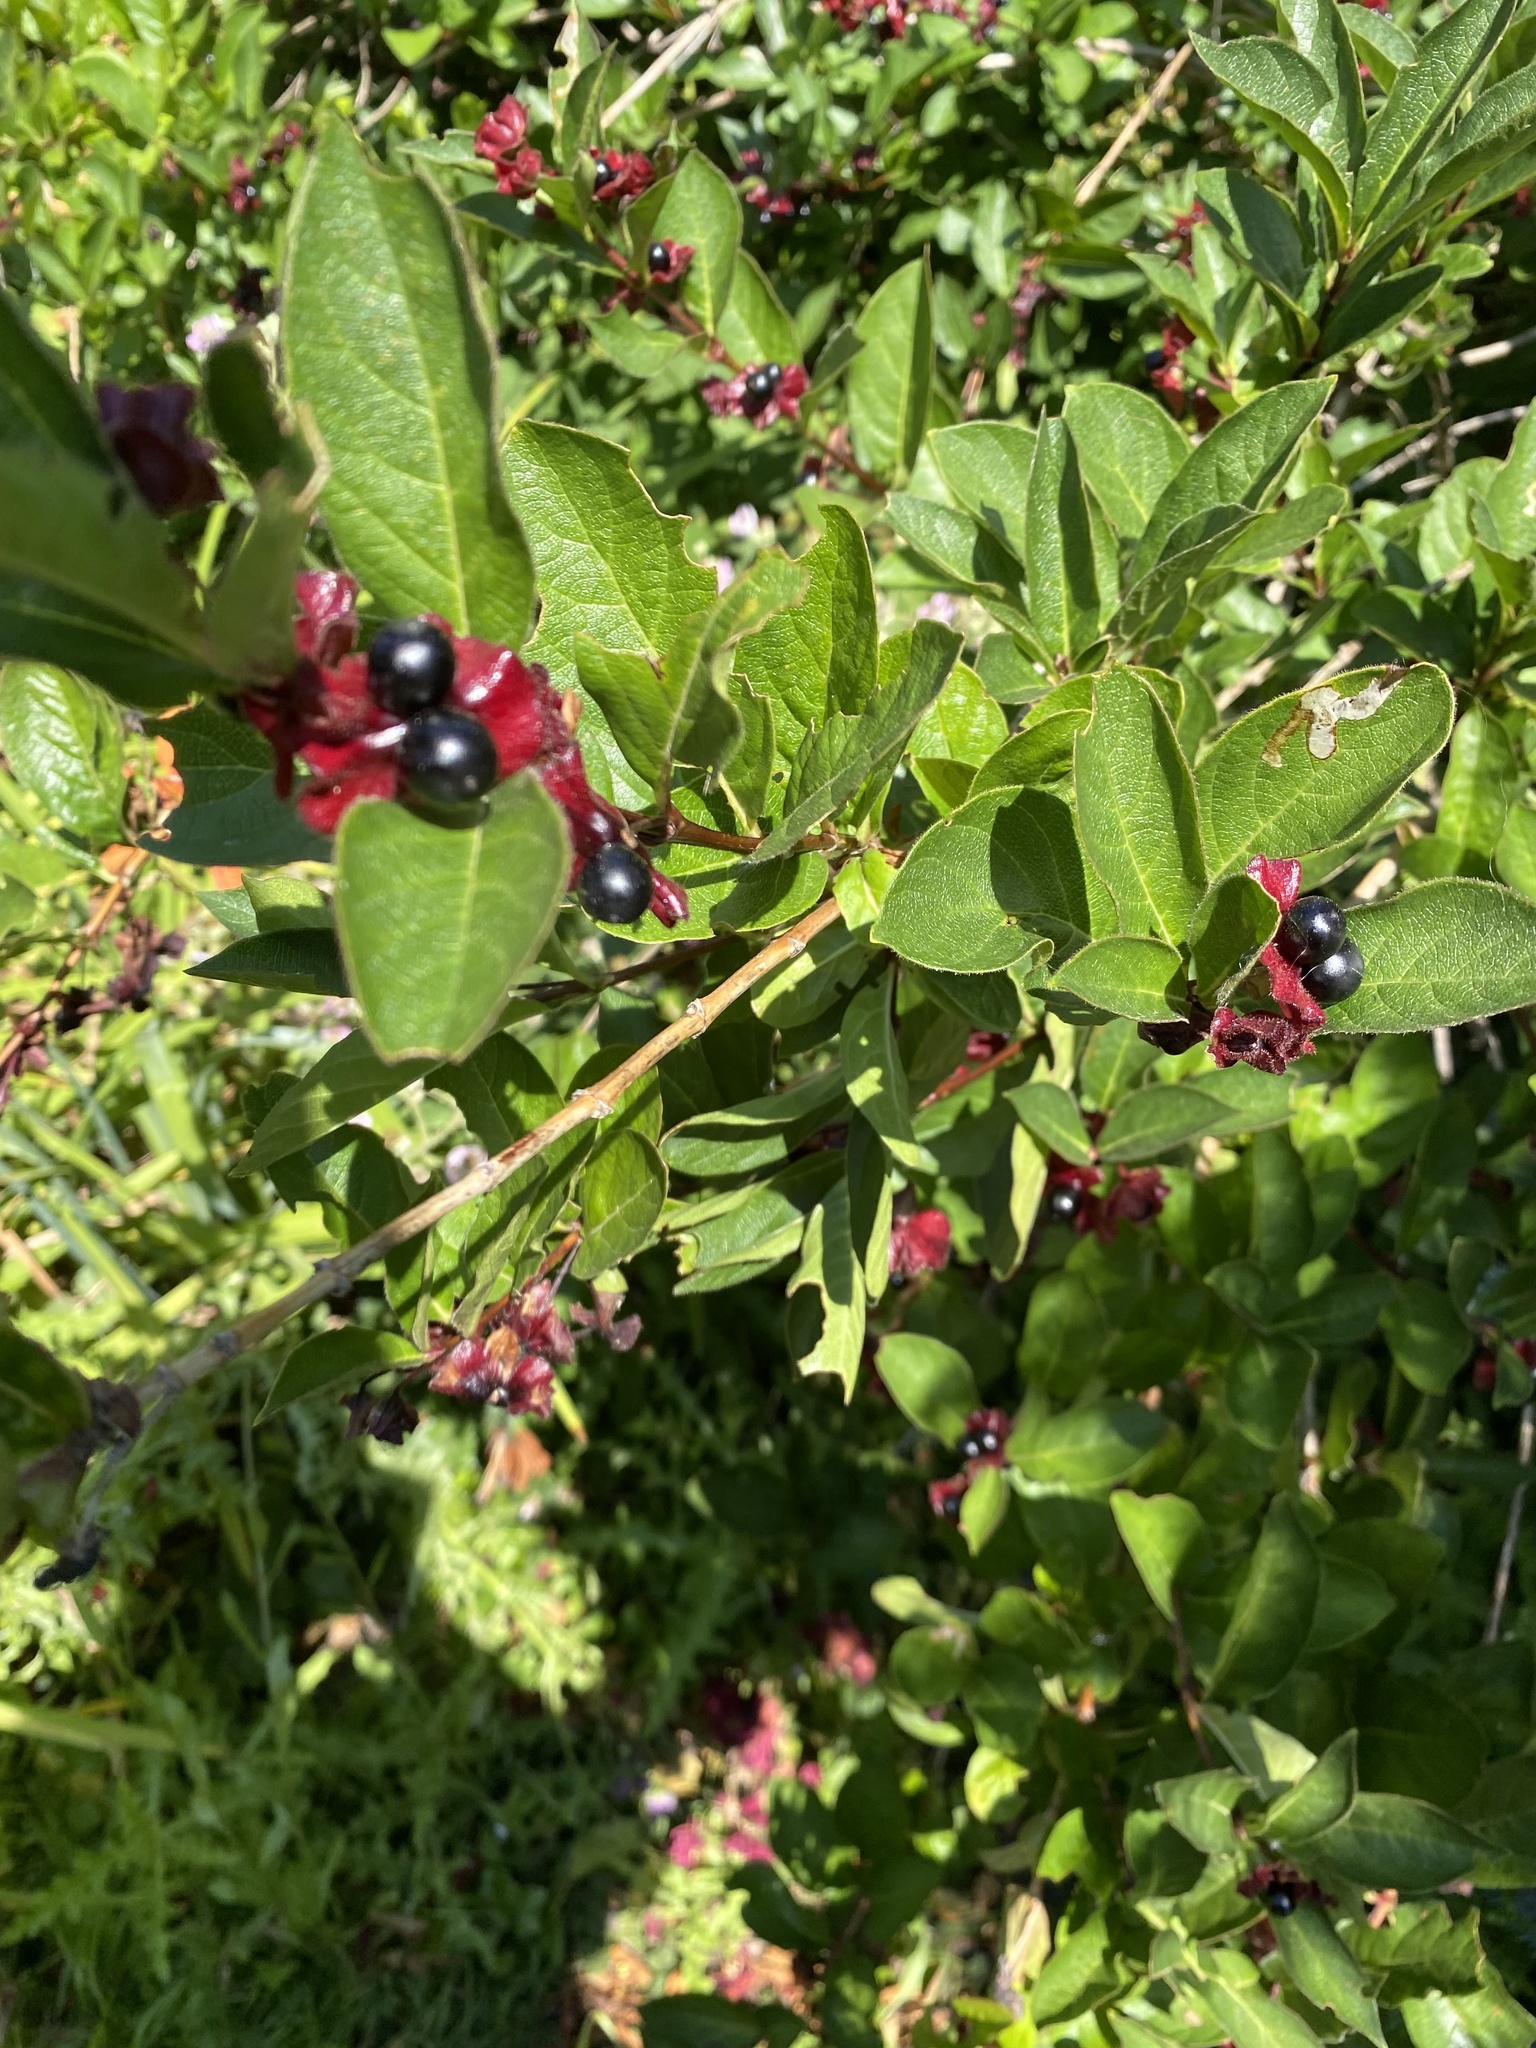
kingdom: Plantae
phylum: Tracheophyta
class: Magnoliopsida
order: Dipsacales
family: Caprifoliaceae
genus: Lonicera
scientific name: Lonicera involucrata
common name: Californian honeysuckle
